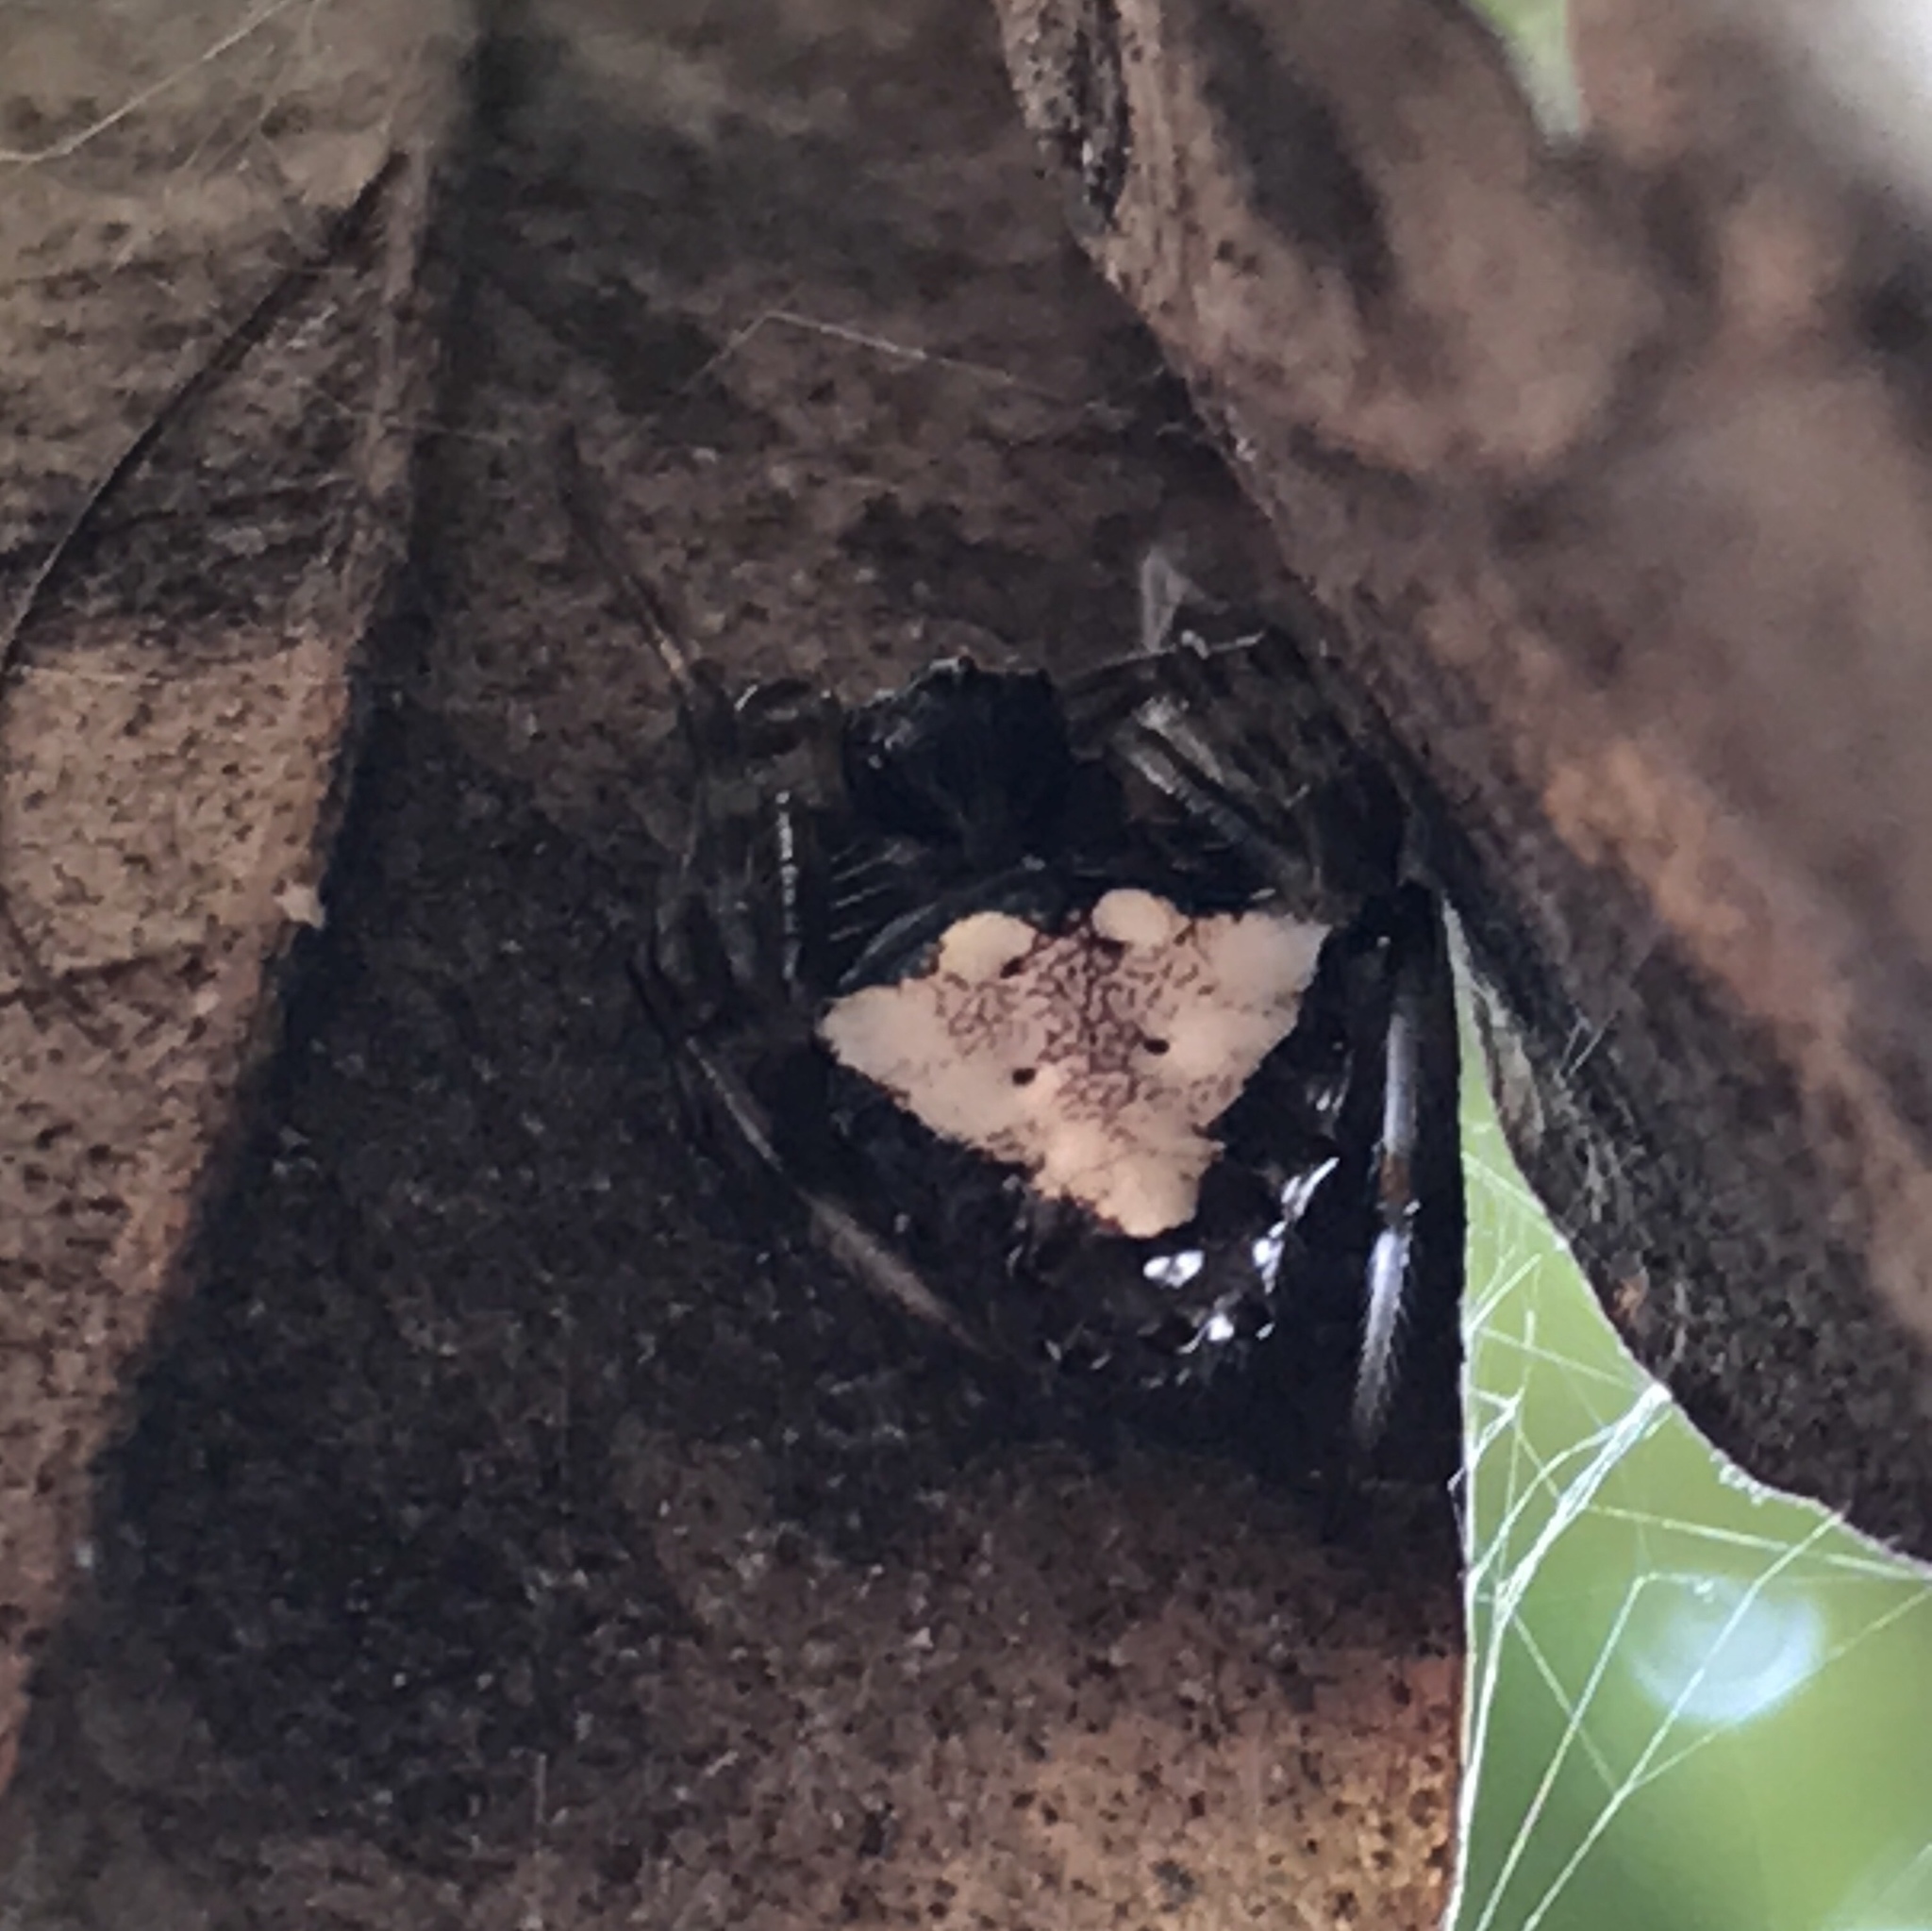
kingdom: Animalia
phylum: Arthropoda
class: Arachnida
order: Araneae
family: Araneidae
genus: Verrucosa
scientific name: Verrucosa arenata
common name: Orb weavers
